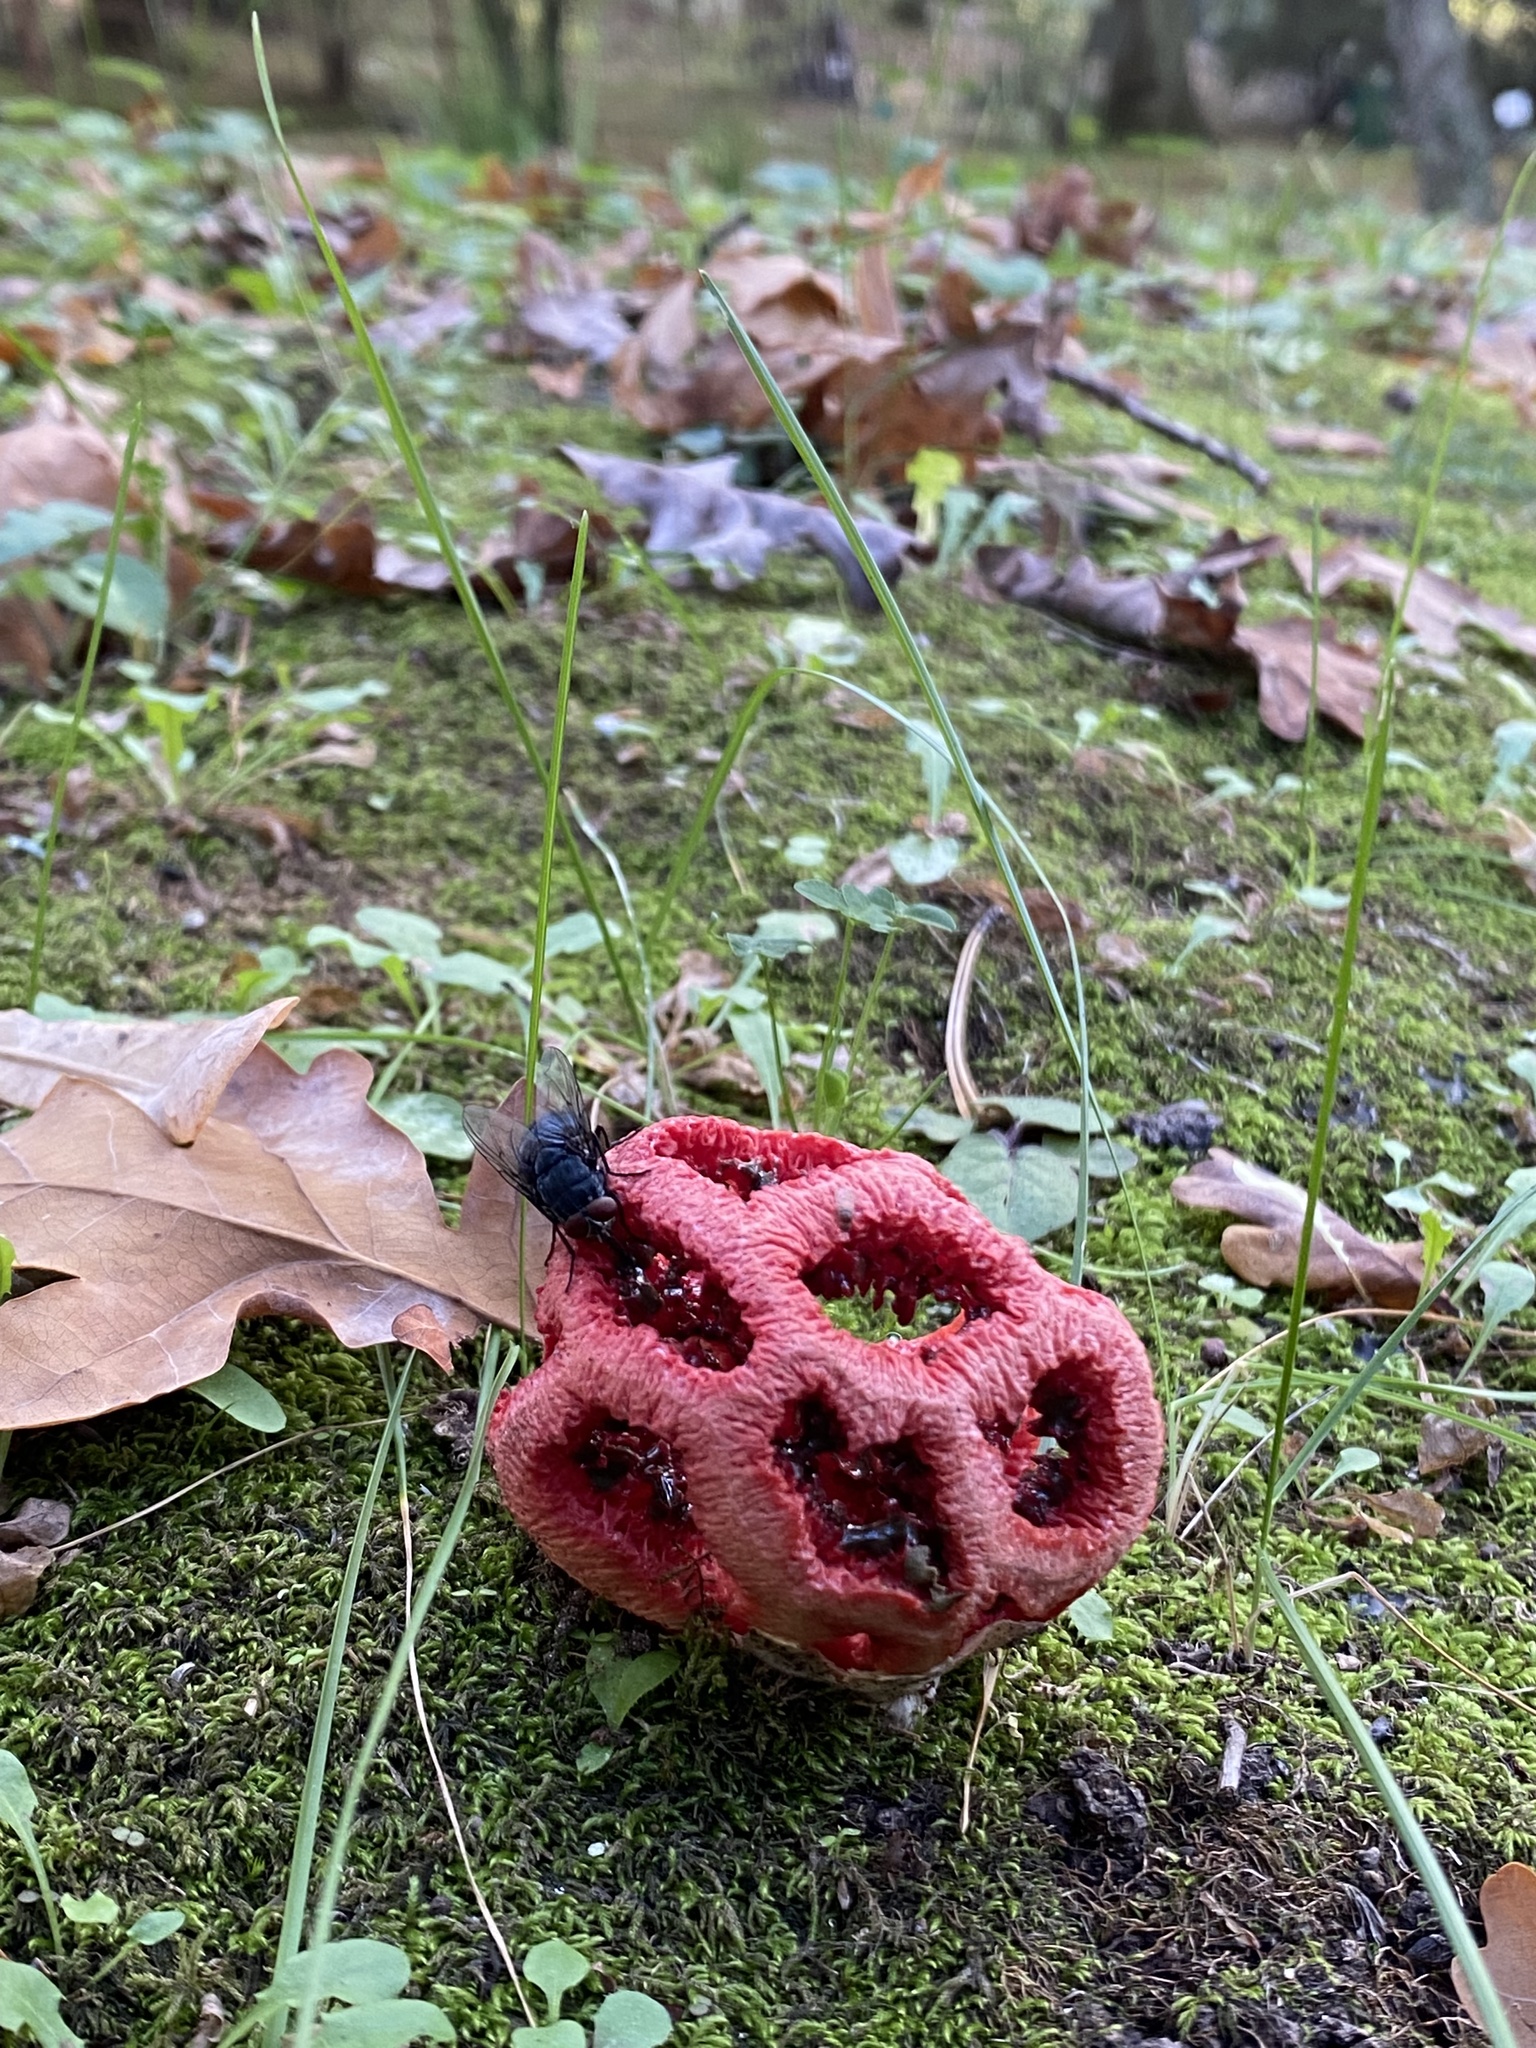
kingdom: Fungi
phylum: Basidiomycota
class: Agaricomycetes
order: Phallales
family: Phallaceae
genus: Clathrus
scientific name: Clathrus ruber
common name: Red cage
